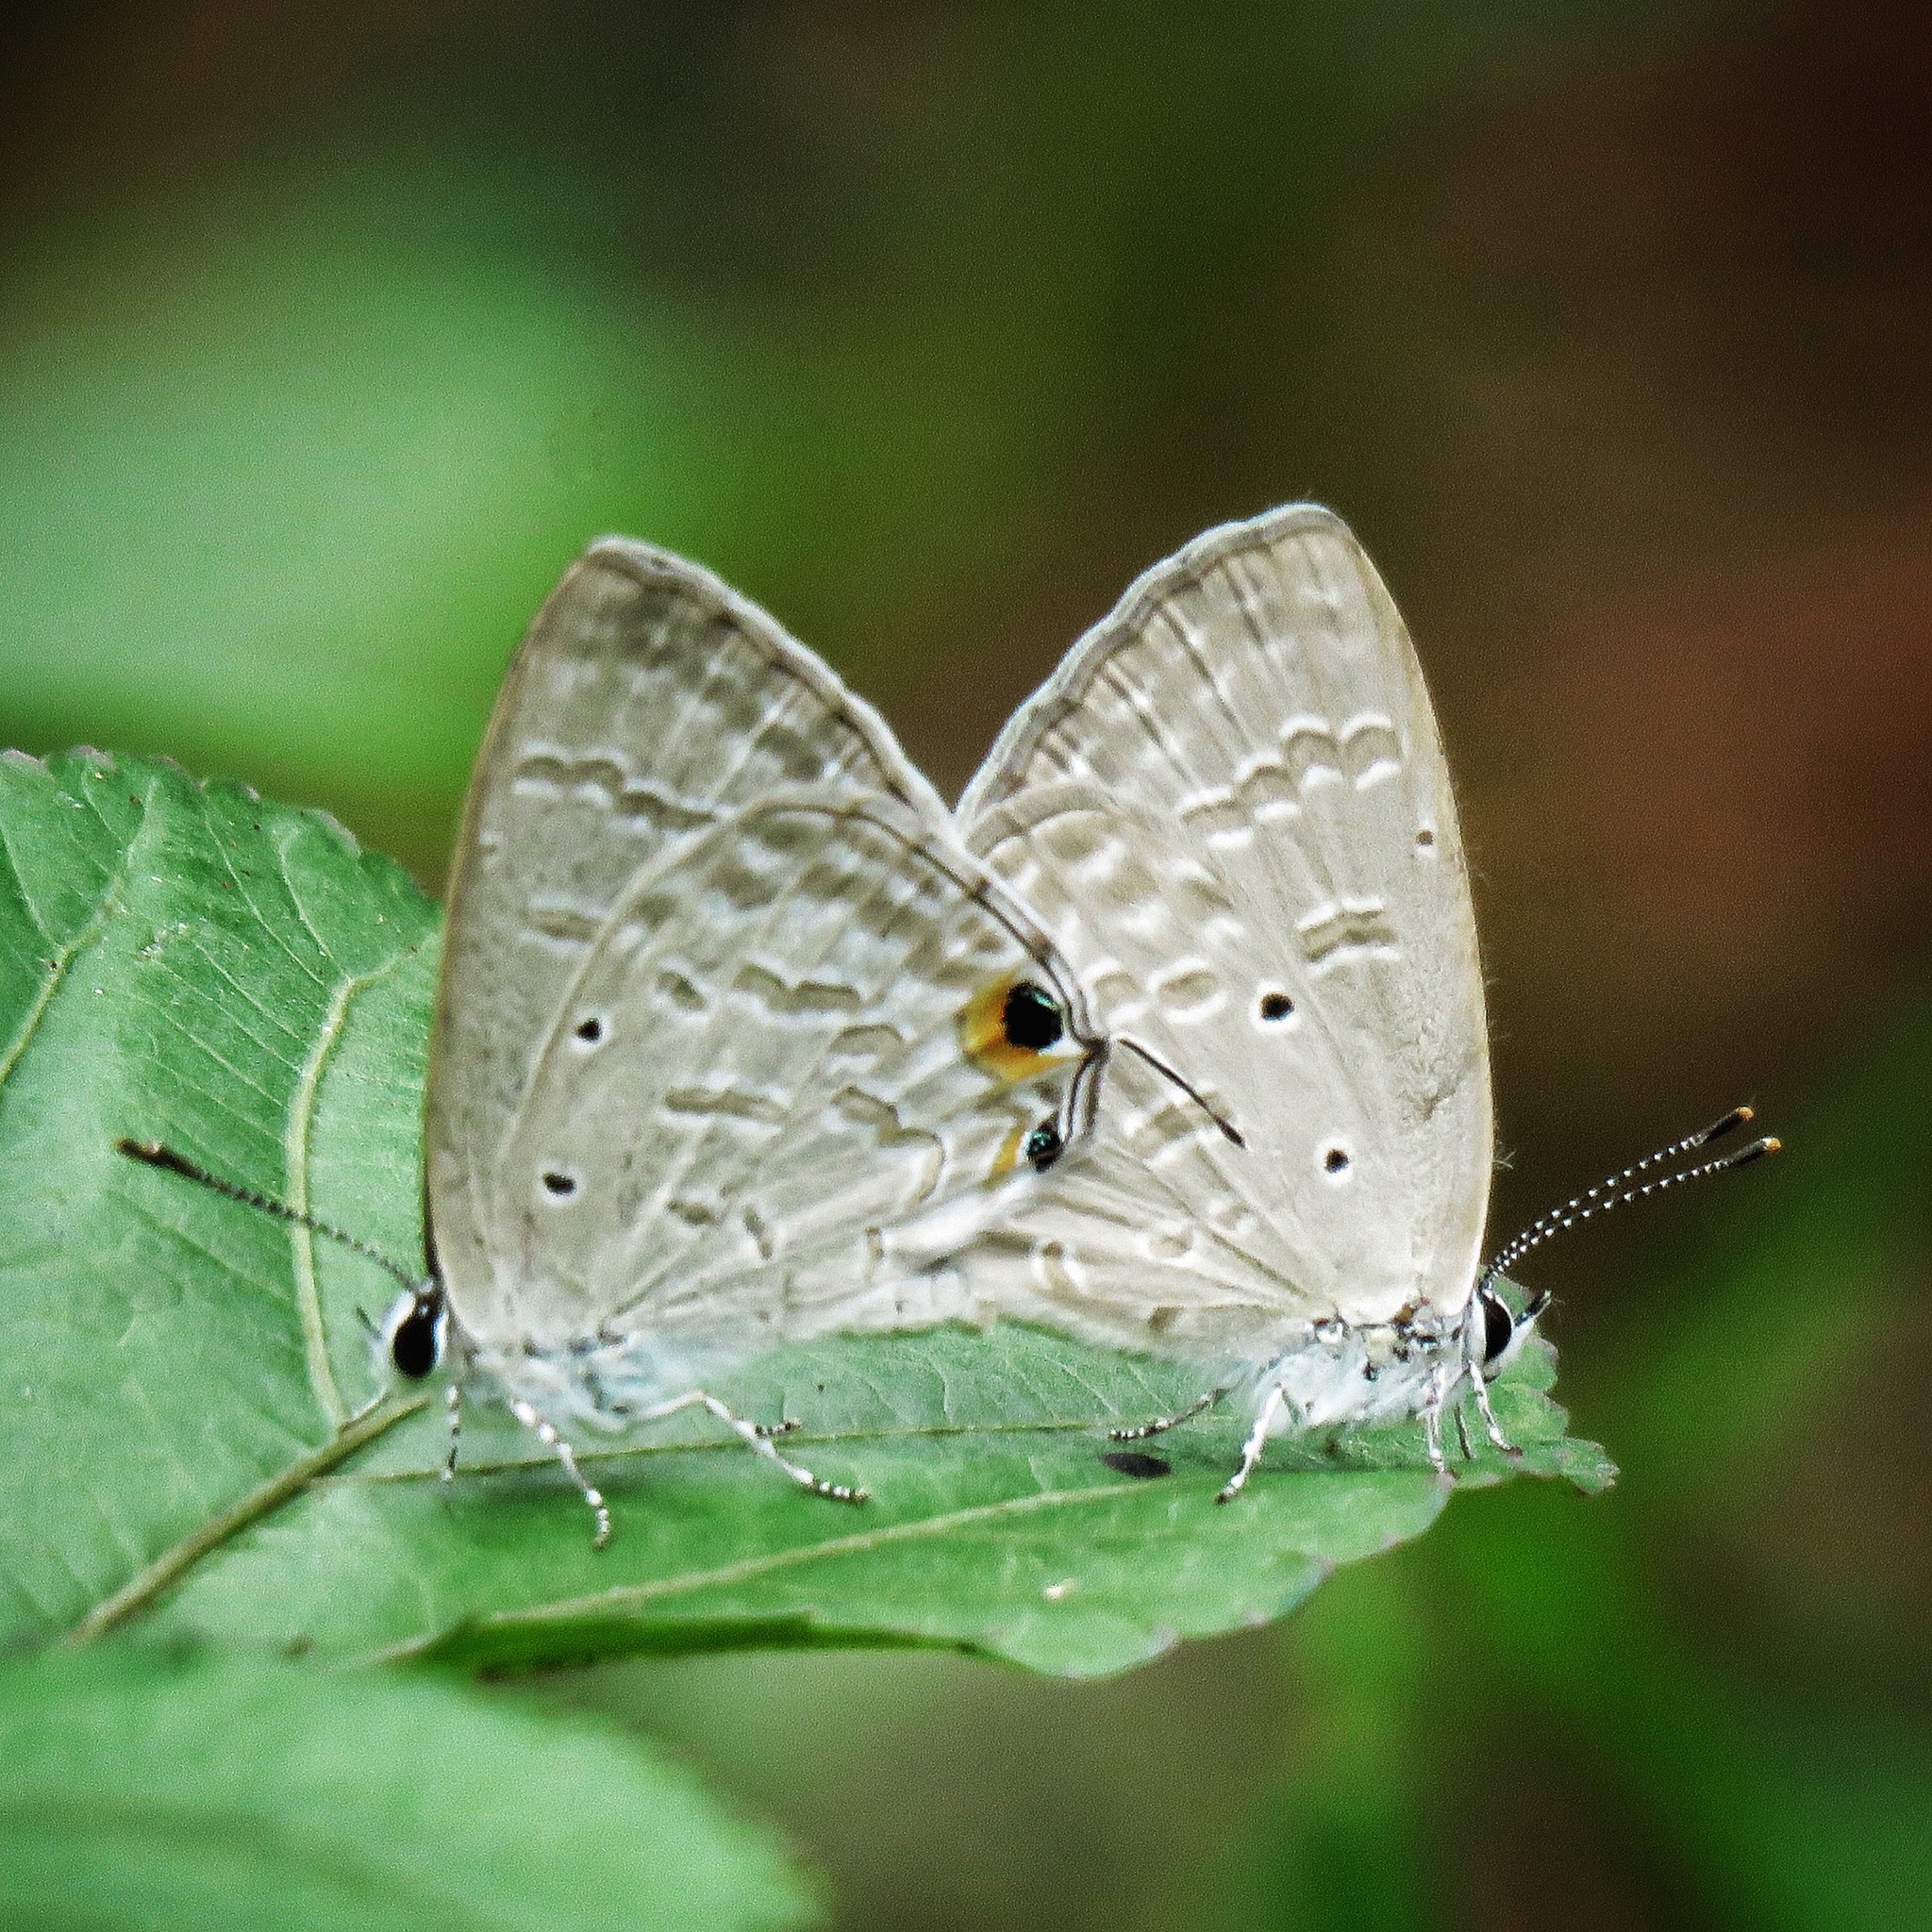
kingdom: Animalia
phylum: Arthropoda
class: Insecta
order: Lepidoptera
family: Lycaenidae
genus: Catochrysops
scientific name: Catochrysops strabo
